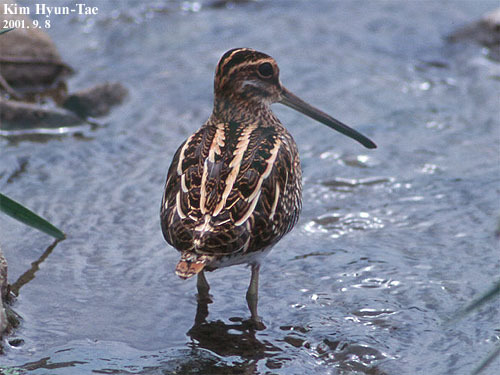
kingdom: Animalia
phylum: Chordata
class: Aves
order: Charadriiformes
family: Scolopacidae
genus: Gallinago
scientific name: Gallinago gallinago
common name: Common snipe
